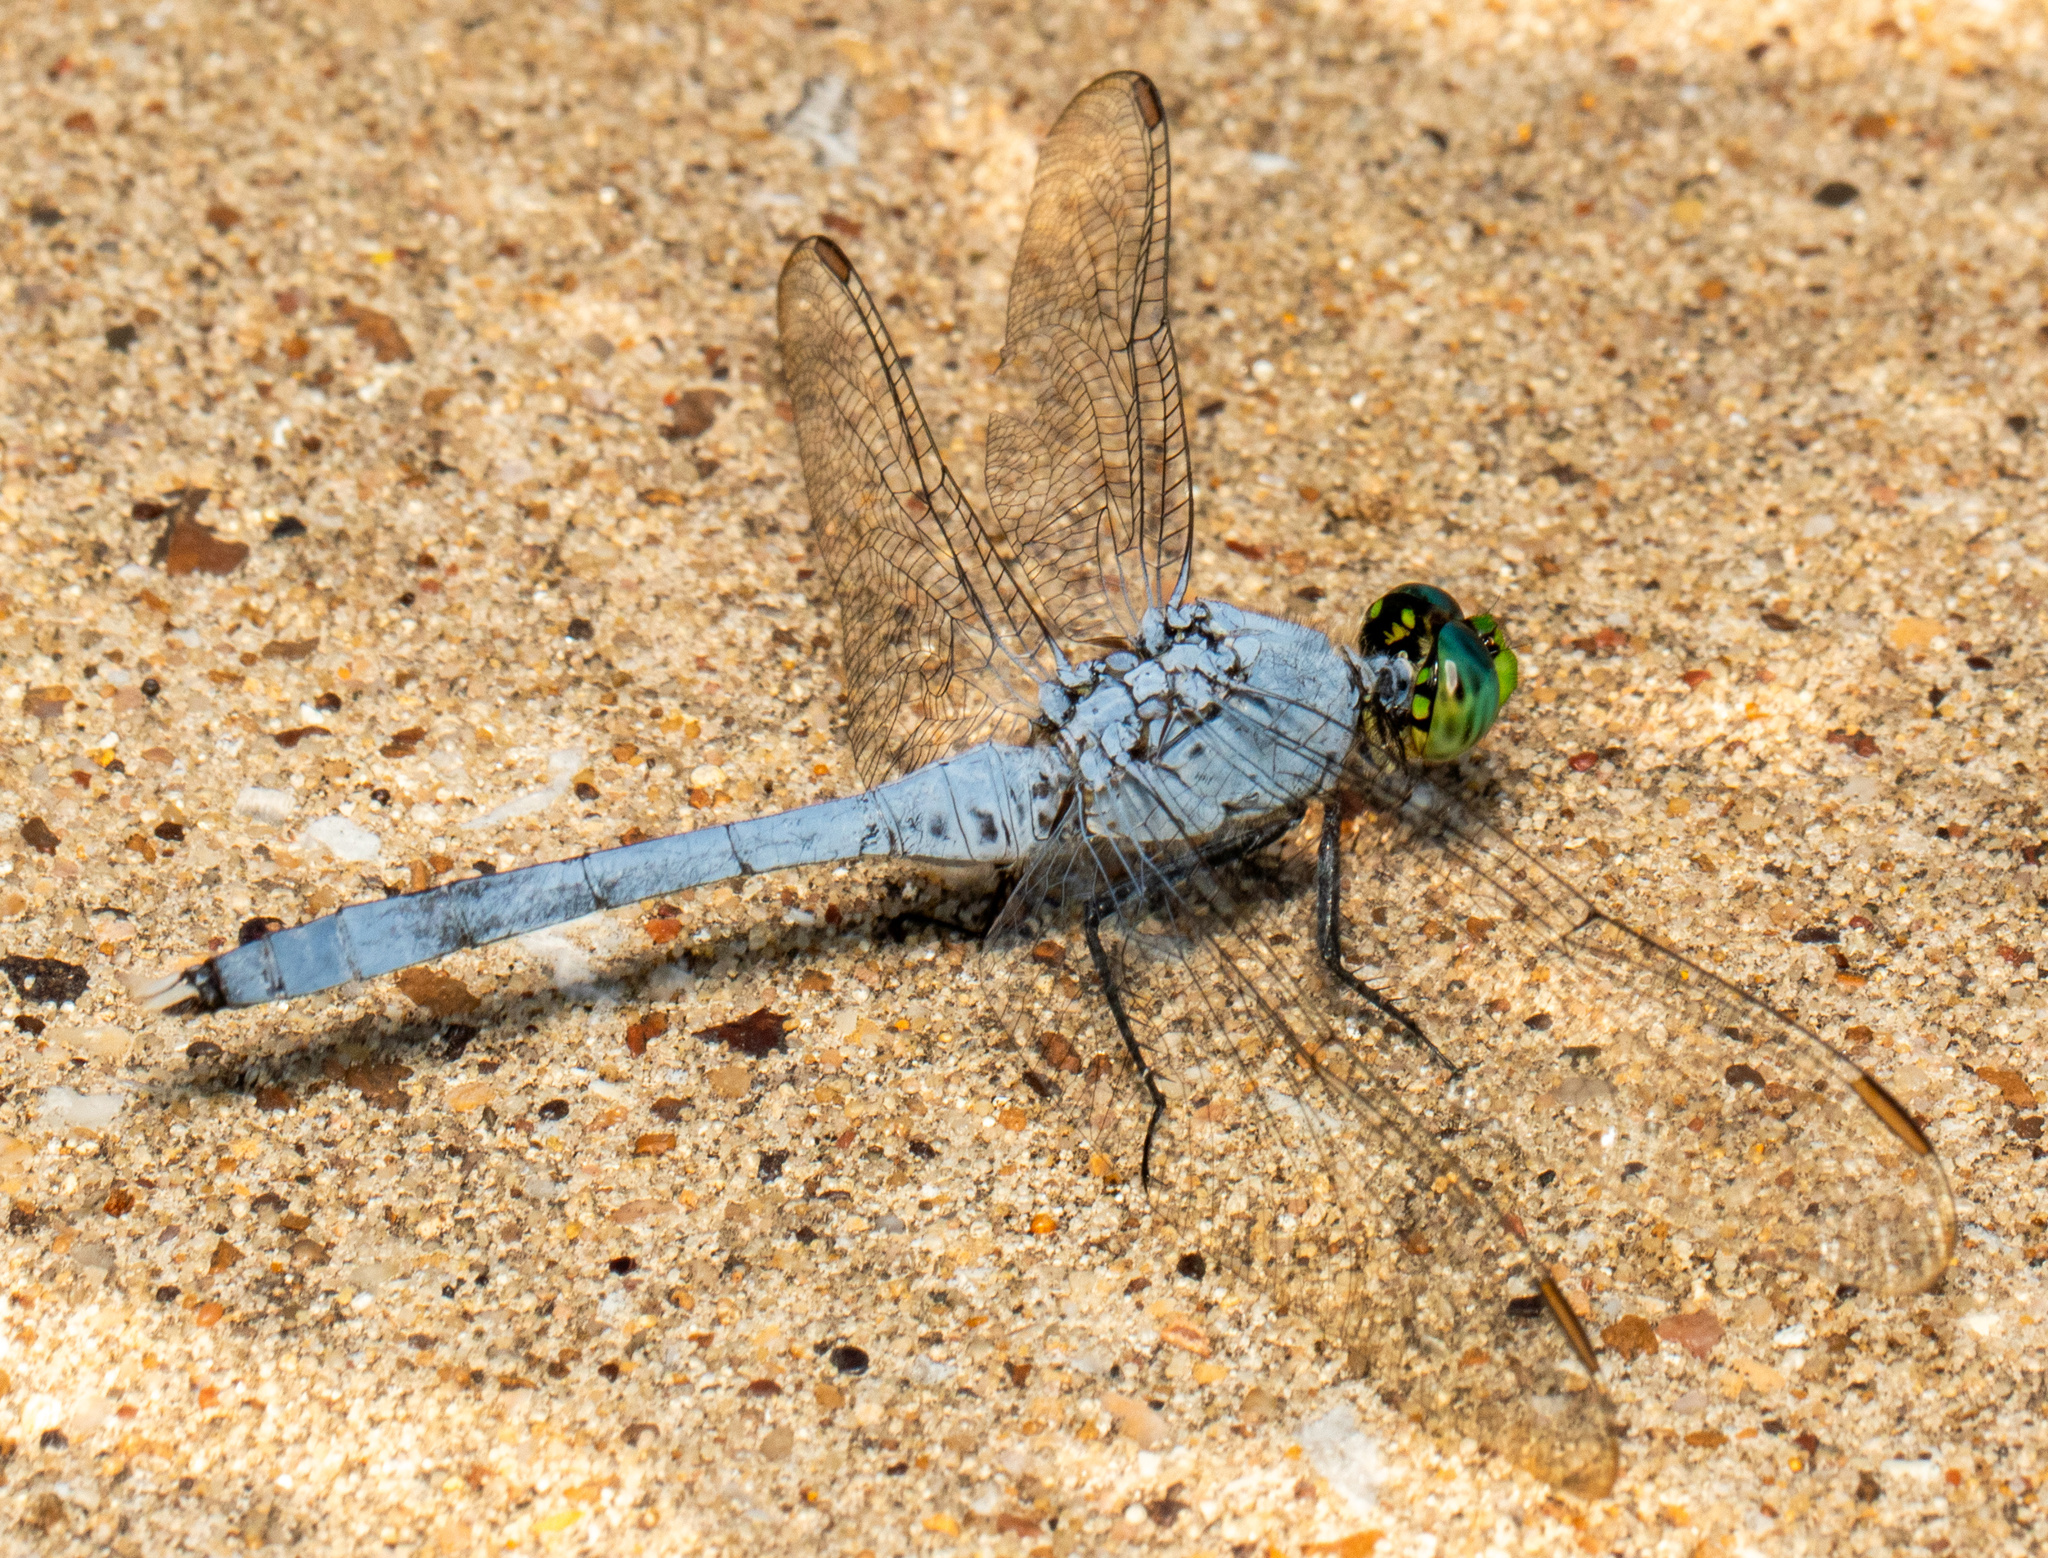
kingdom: Animalia
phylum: Arthropoda
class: Insecta
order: Odonata
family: Libellulidae
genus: Erythemis
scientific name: Erythemis simplicicollis
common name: Eastern pondhawk
